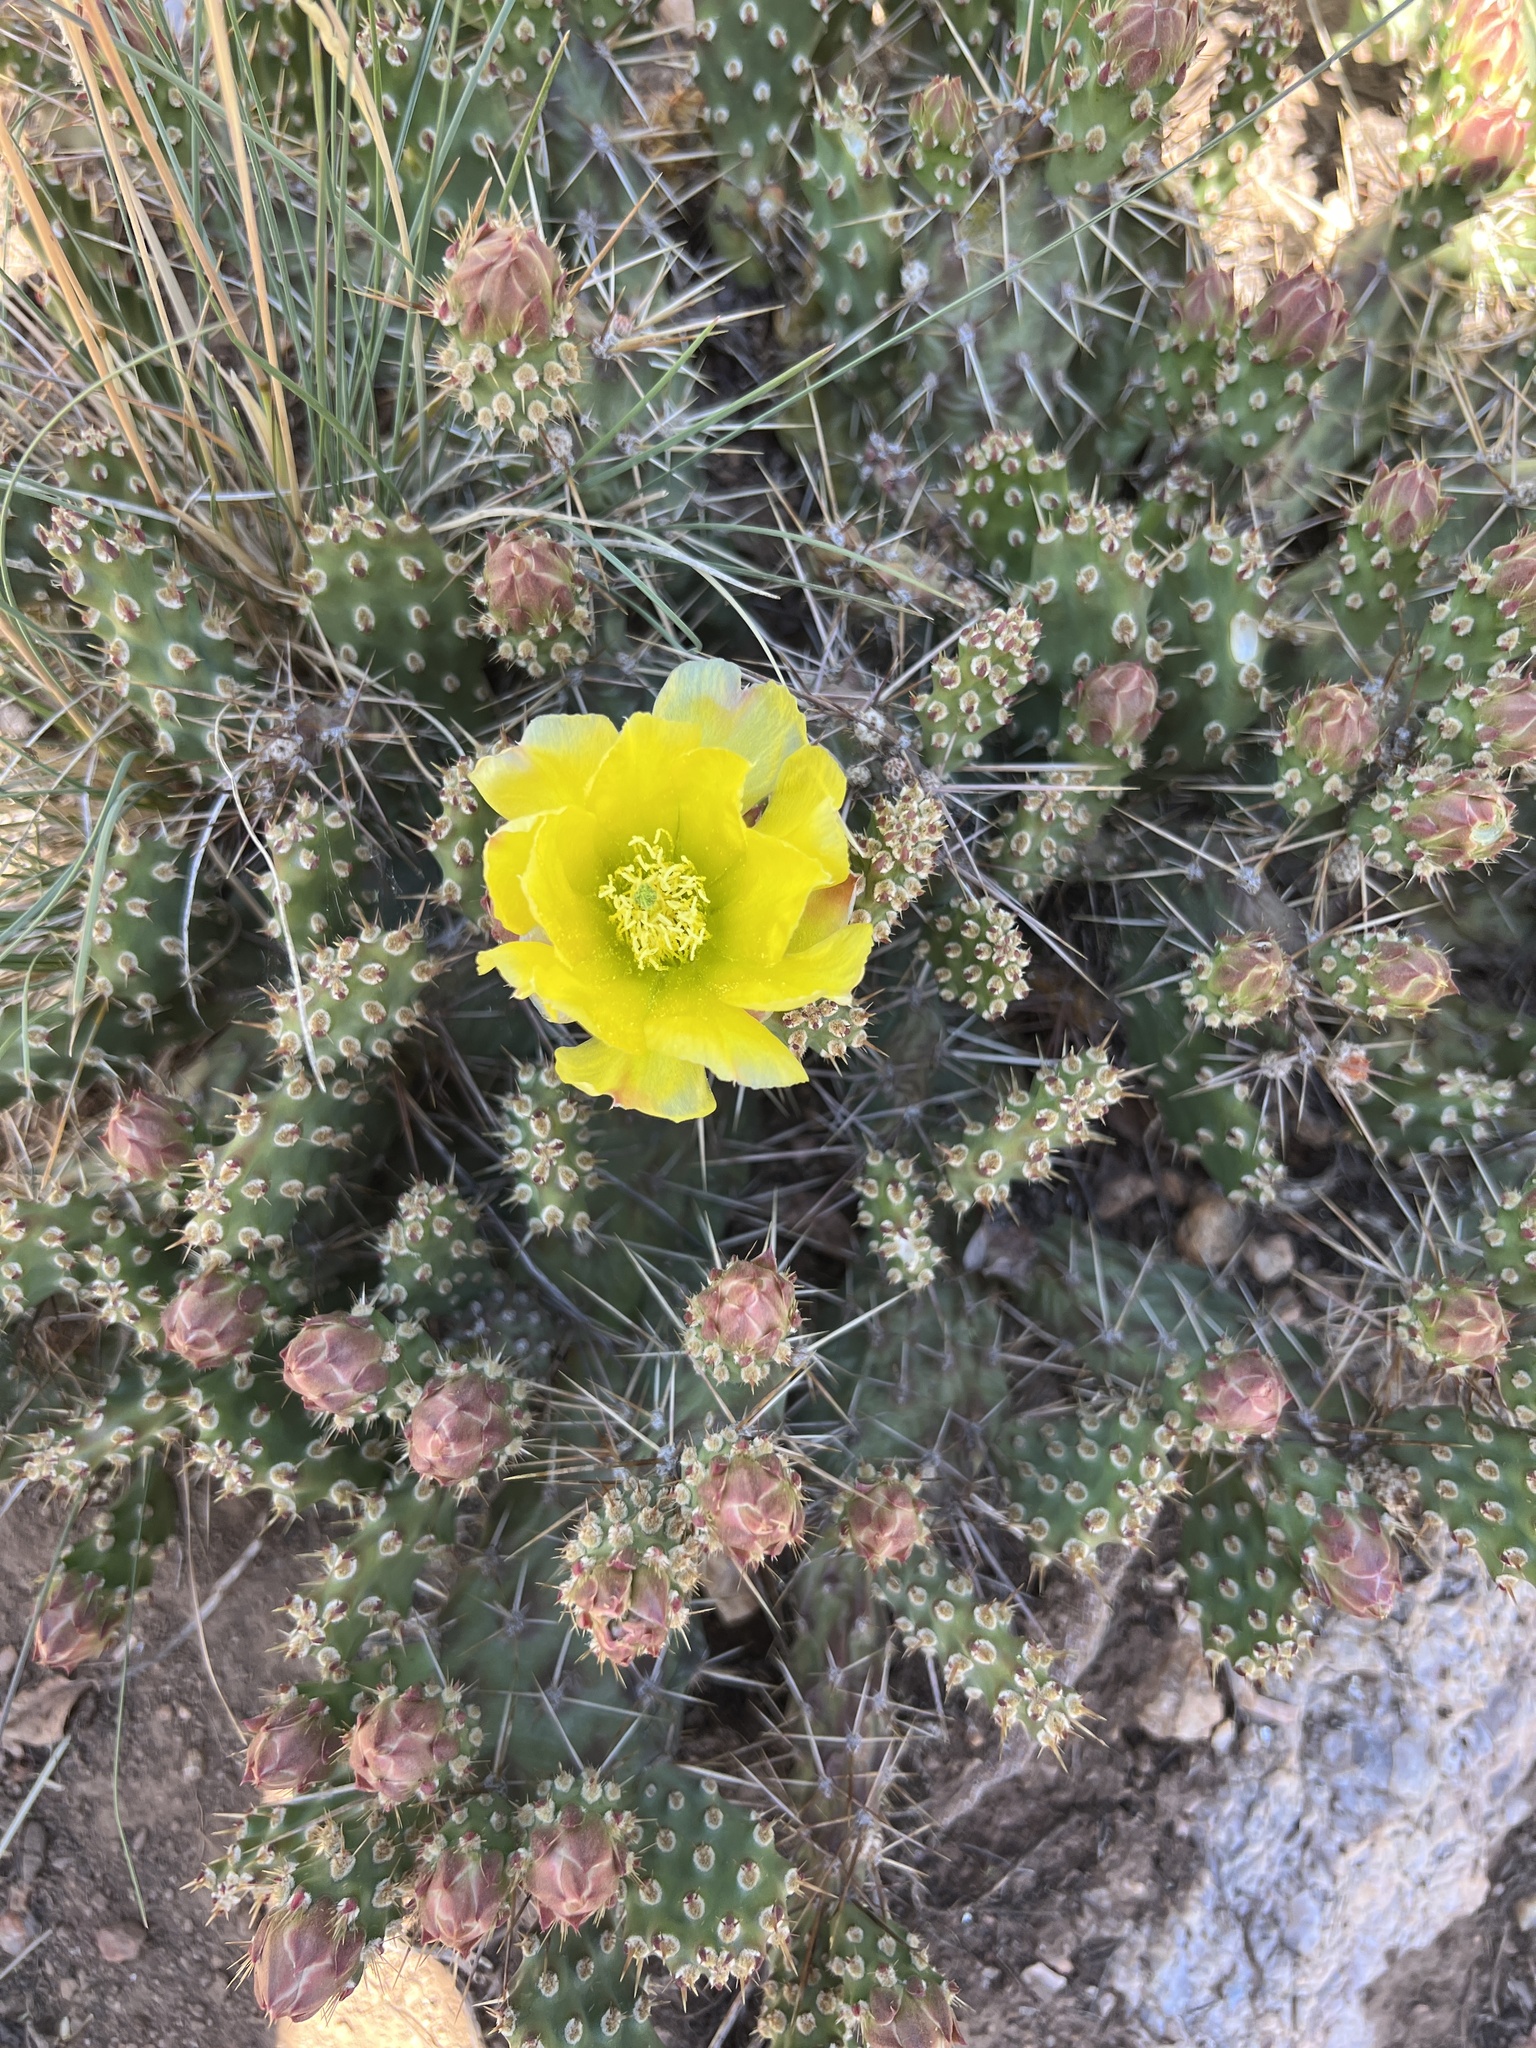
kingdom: Plantae
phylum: Tracheophyta
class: Magnoliopsida
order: Caryophyllales
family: Cactaceae
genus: Opuntia
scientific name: Opuntia fragilis
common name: Brittle cactus
